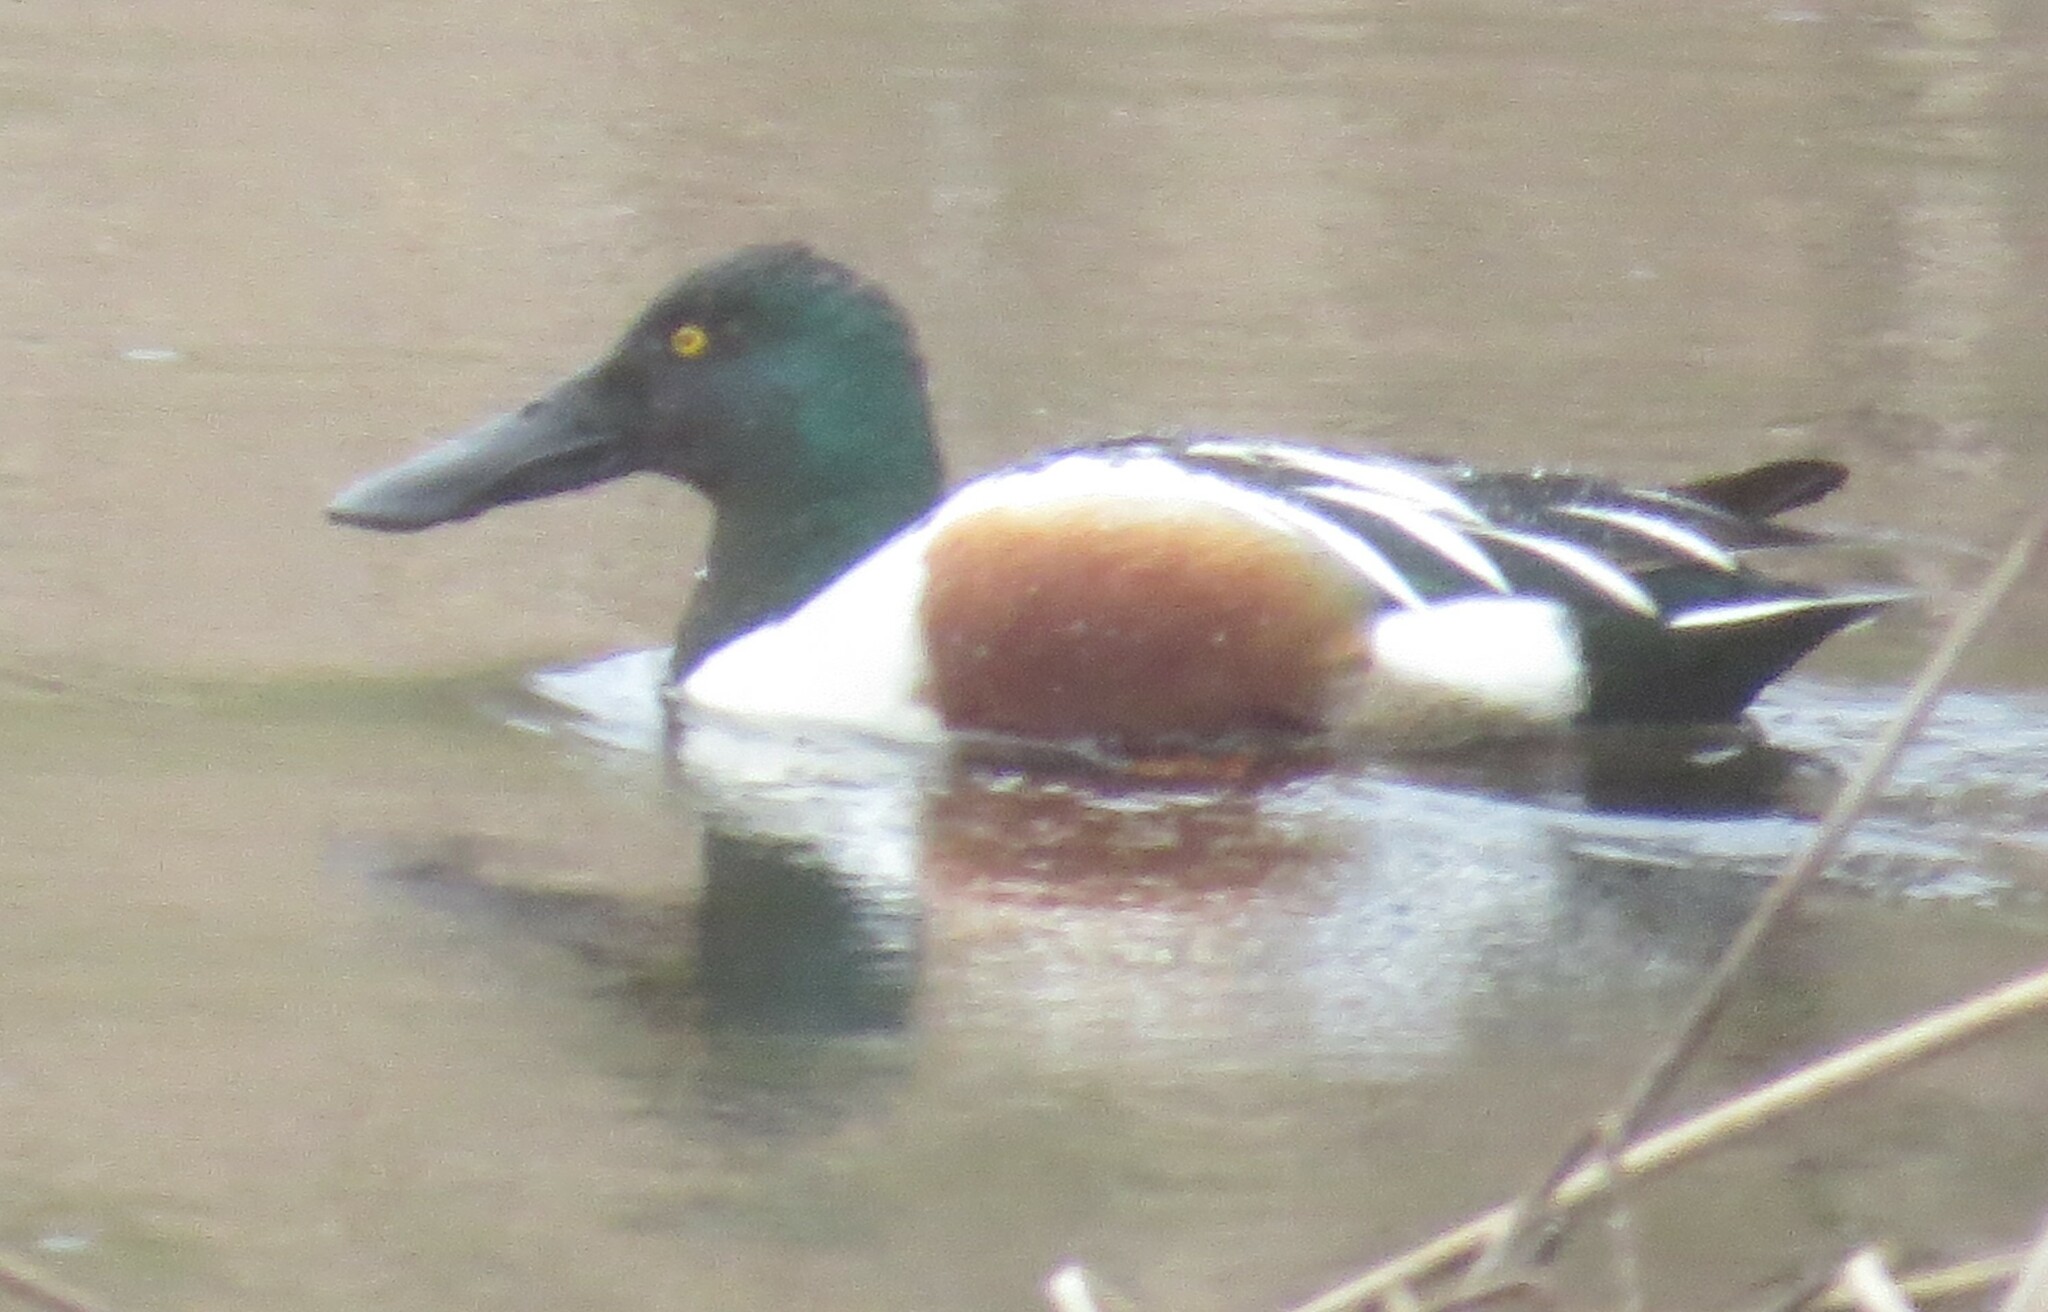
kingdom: Animalia
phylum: Chordata
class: Aves
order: Anseriformes
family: Anatidae
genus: Spatula
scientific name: Spatula clypeata
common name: Northern shoveler
